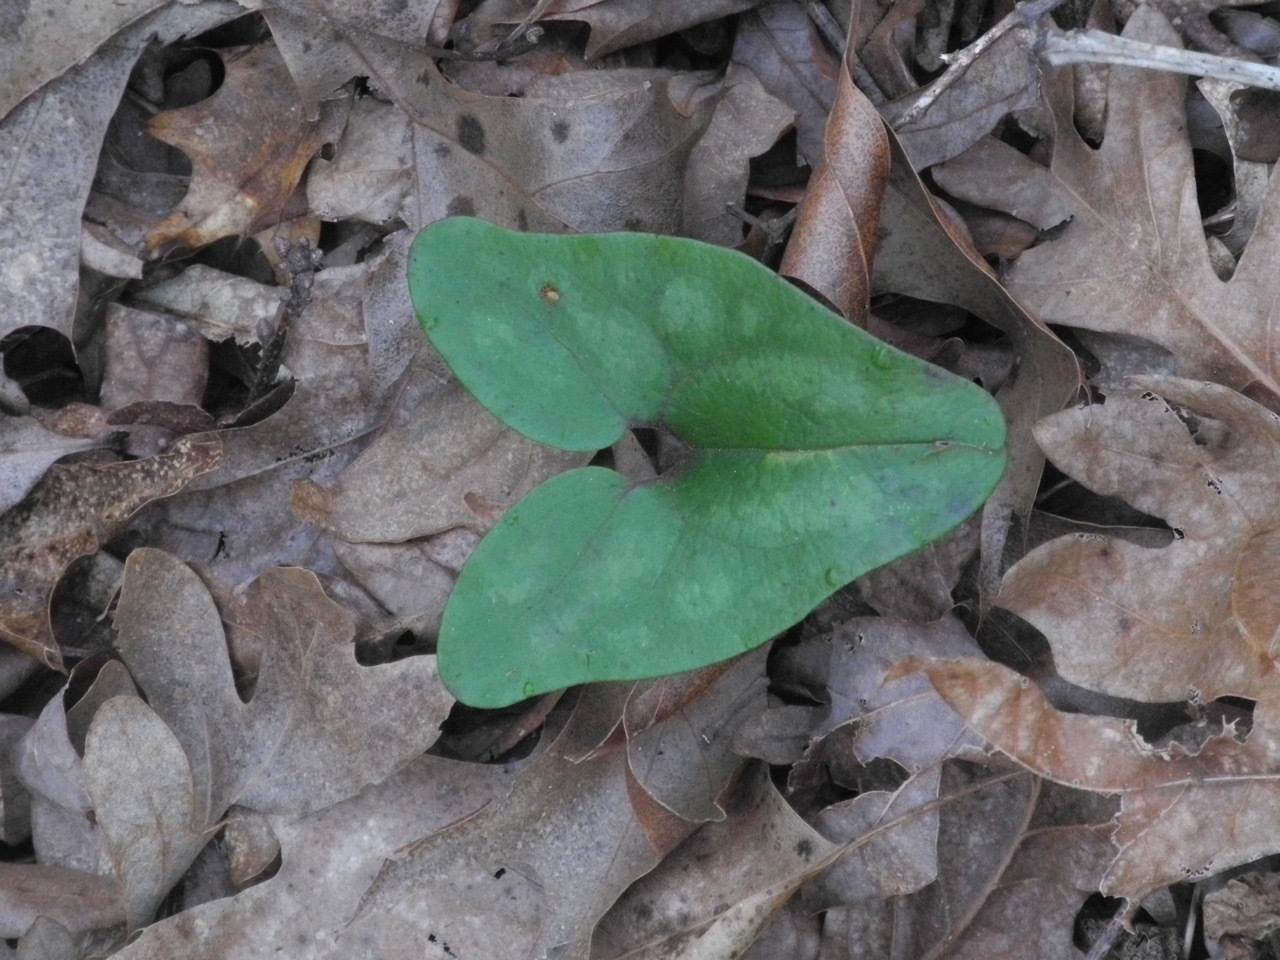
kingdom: Plantae
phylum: Tracheophyta
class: Magnoliopsida
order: Piperales
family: Aristolochiaceae
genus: Hexastylis
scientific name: Hexastylis arifolia
